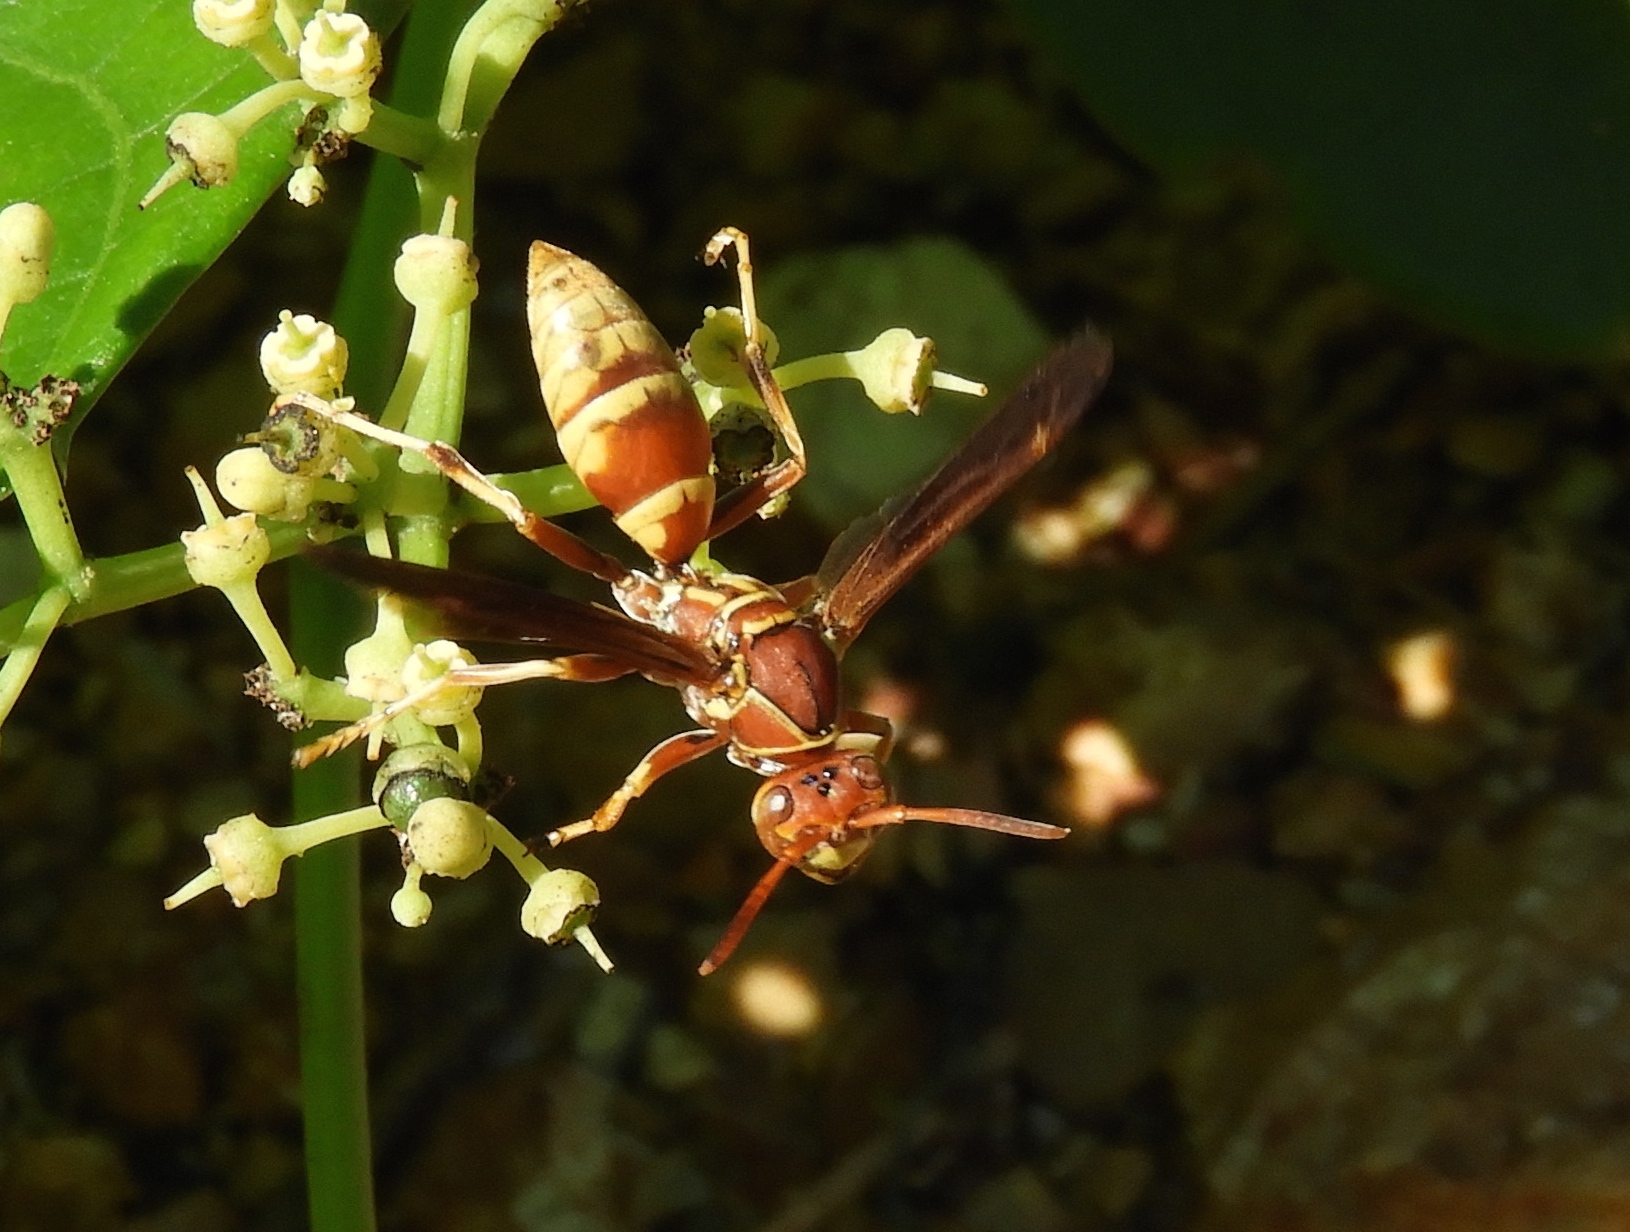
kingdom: Animalia
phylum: Arthropoda
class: Insecta
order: Hymenoptera
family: Eumenidae
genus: Polistes
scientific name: Polistes dorsalis
